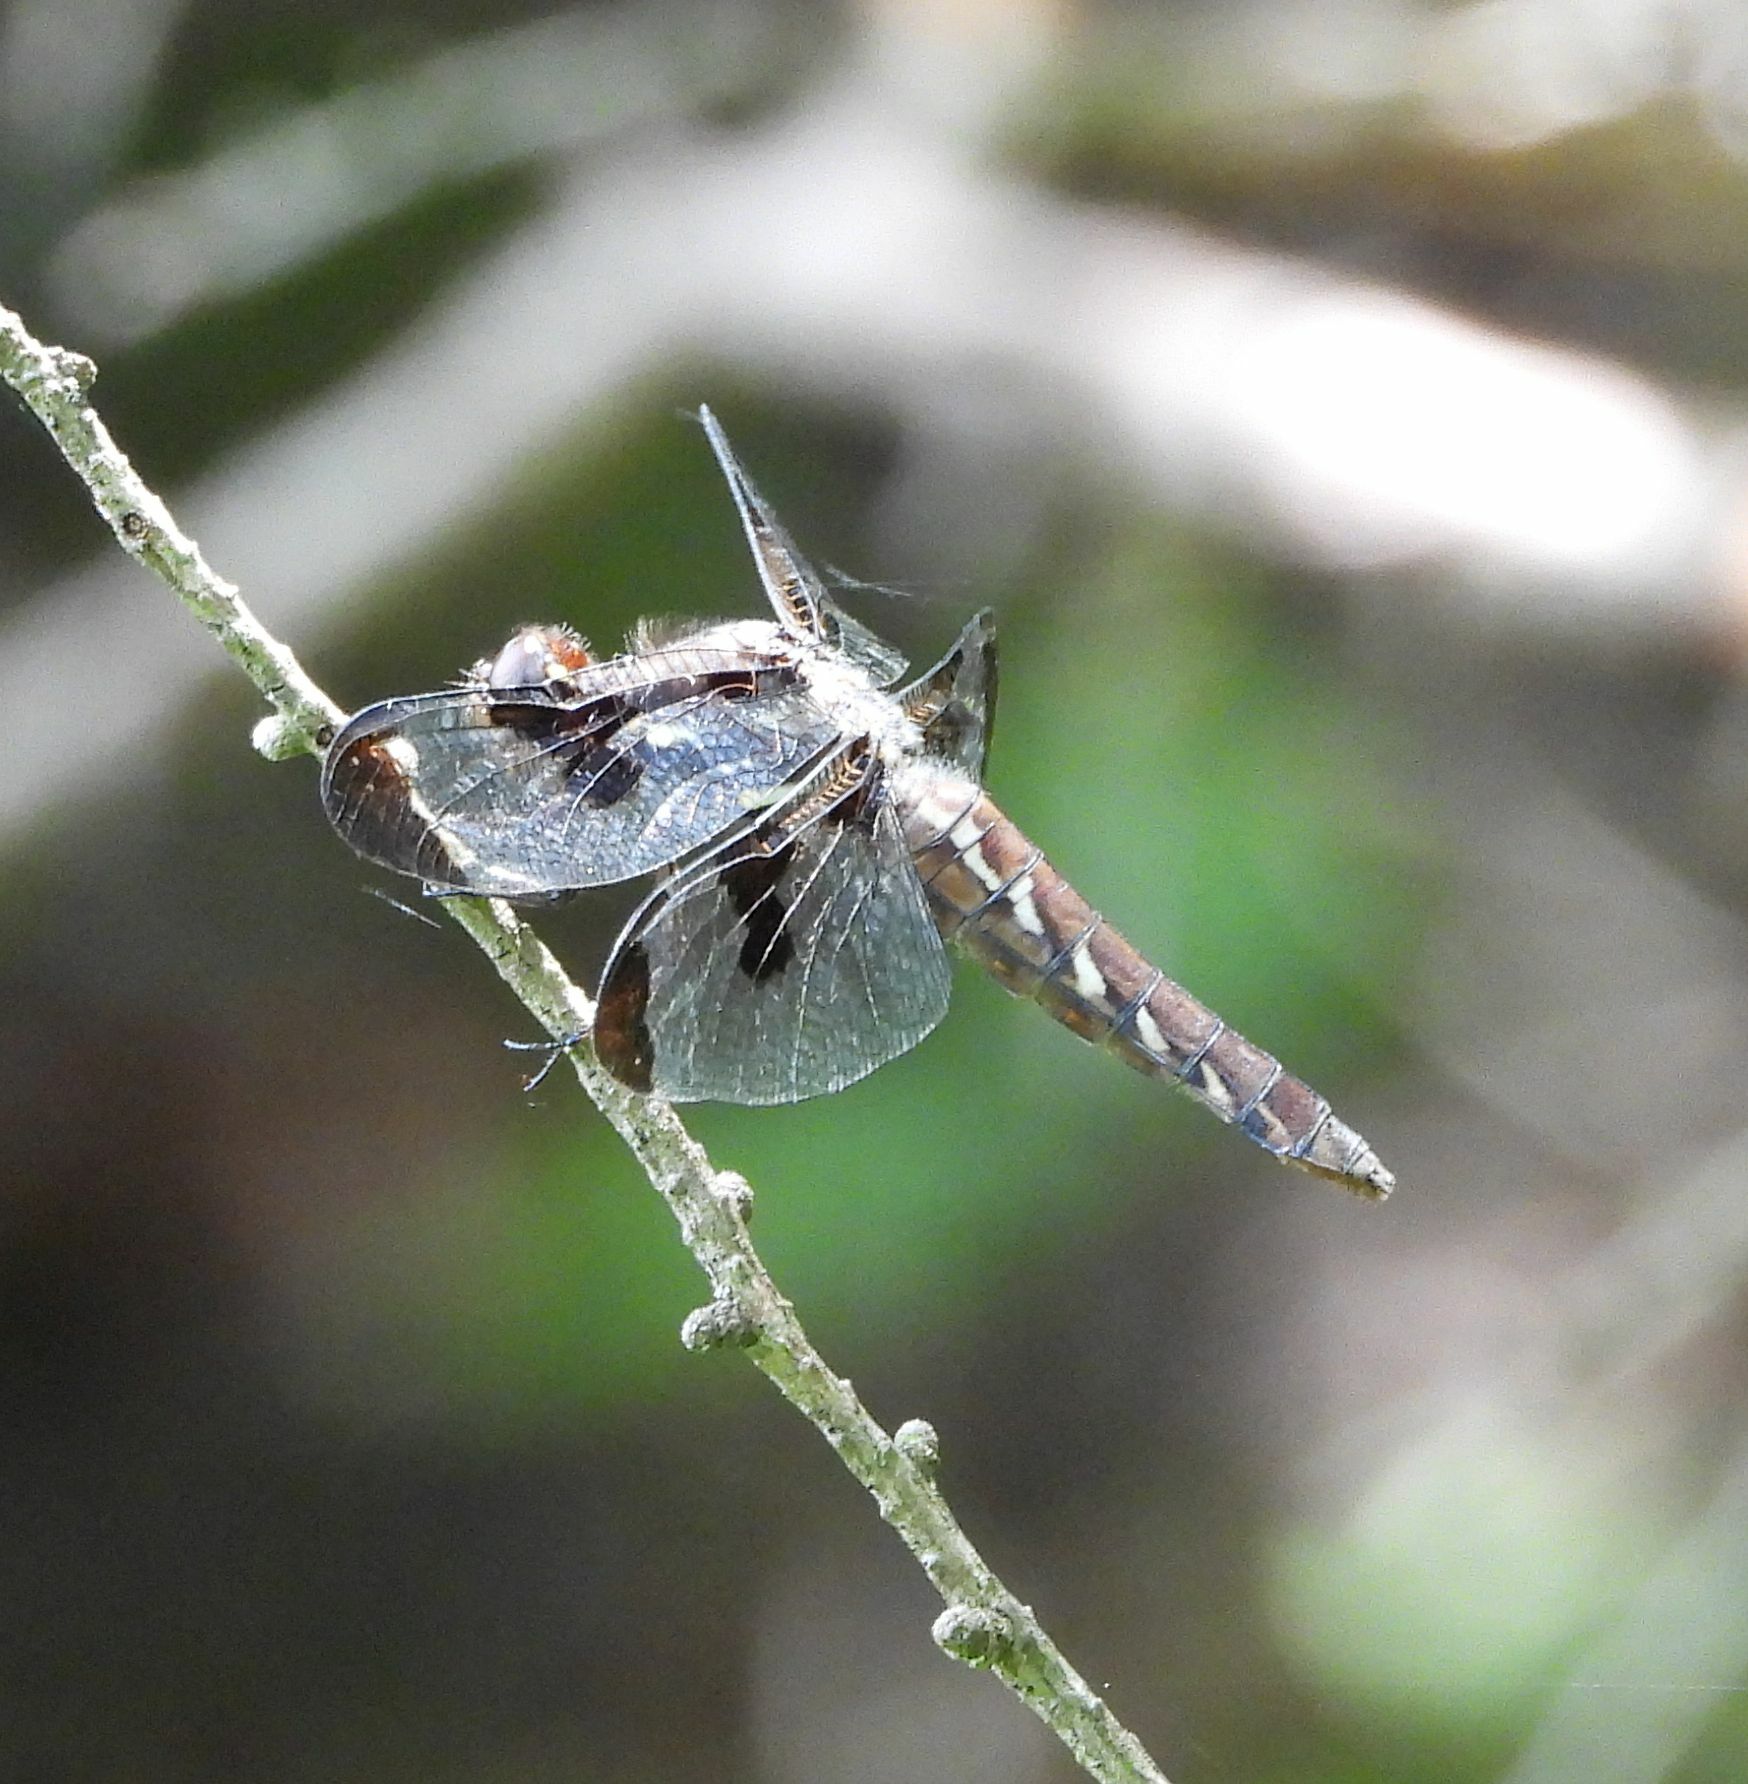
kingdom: Animalia
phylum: Arthropoda
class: Insecta
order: Odonata
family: Libellulidae
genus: Plathemis
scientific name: Plathemis lydia
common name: Common whitetail
